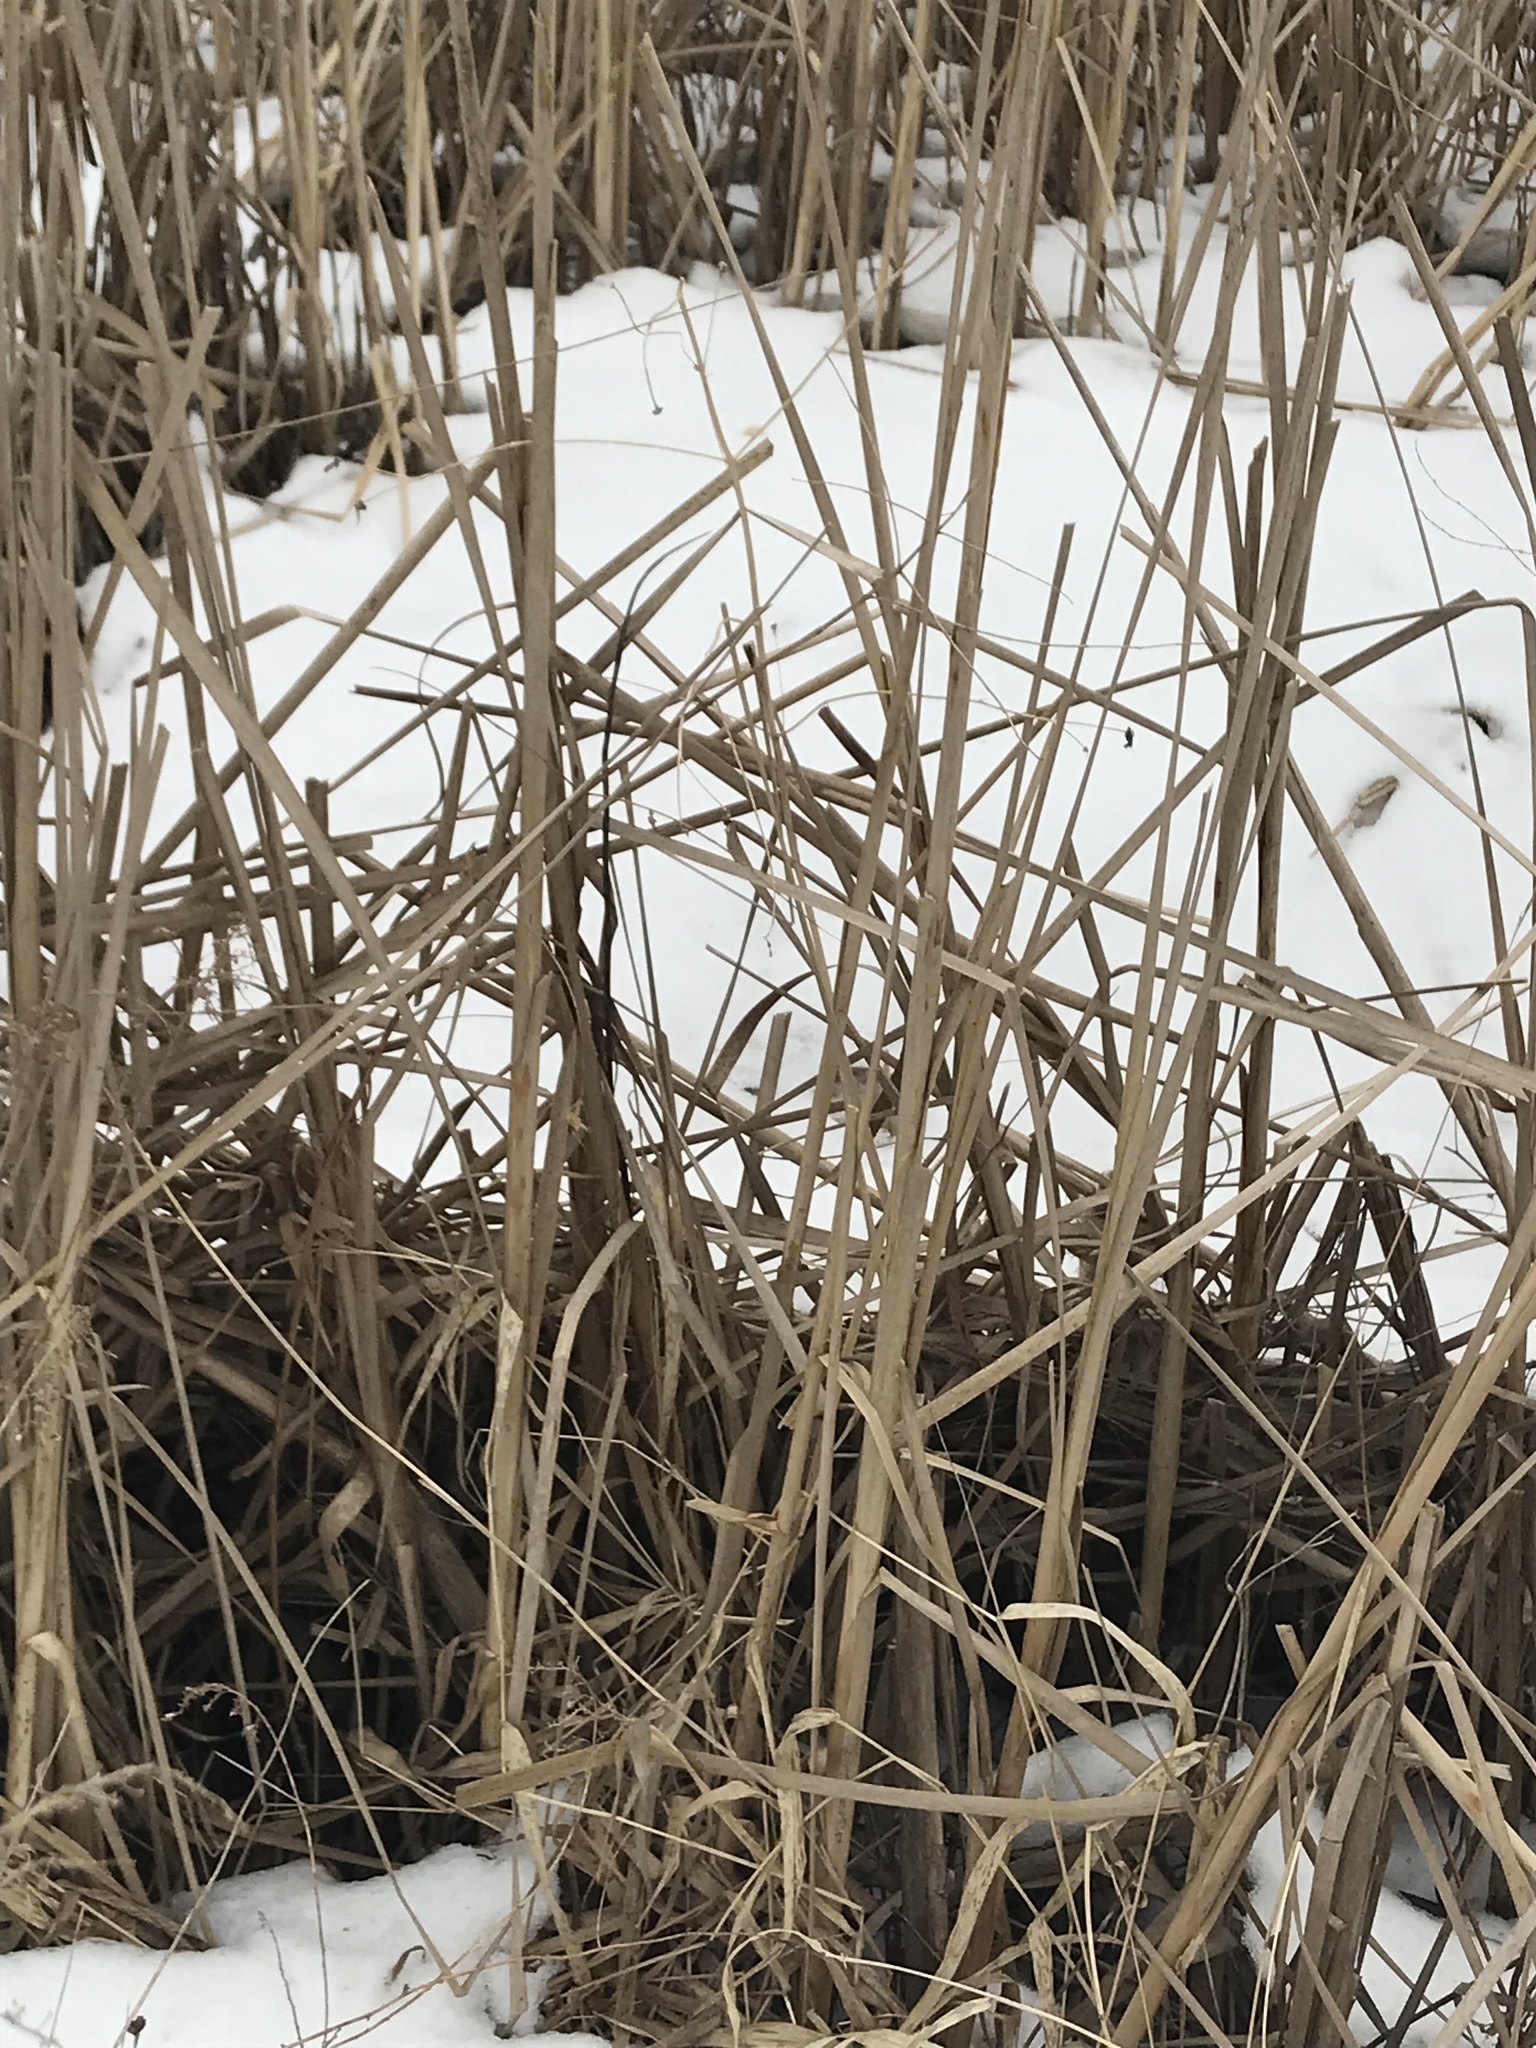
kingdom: Plantae
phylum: Tracheophyta
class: Liliopsida
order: Poales
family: Typhaceae
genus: Typha
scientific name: Typha latifolia
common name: Broadleaf cattail
